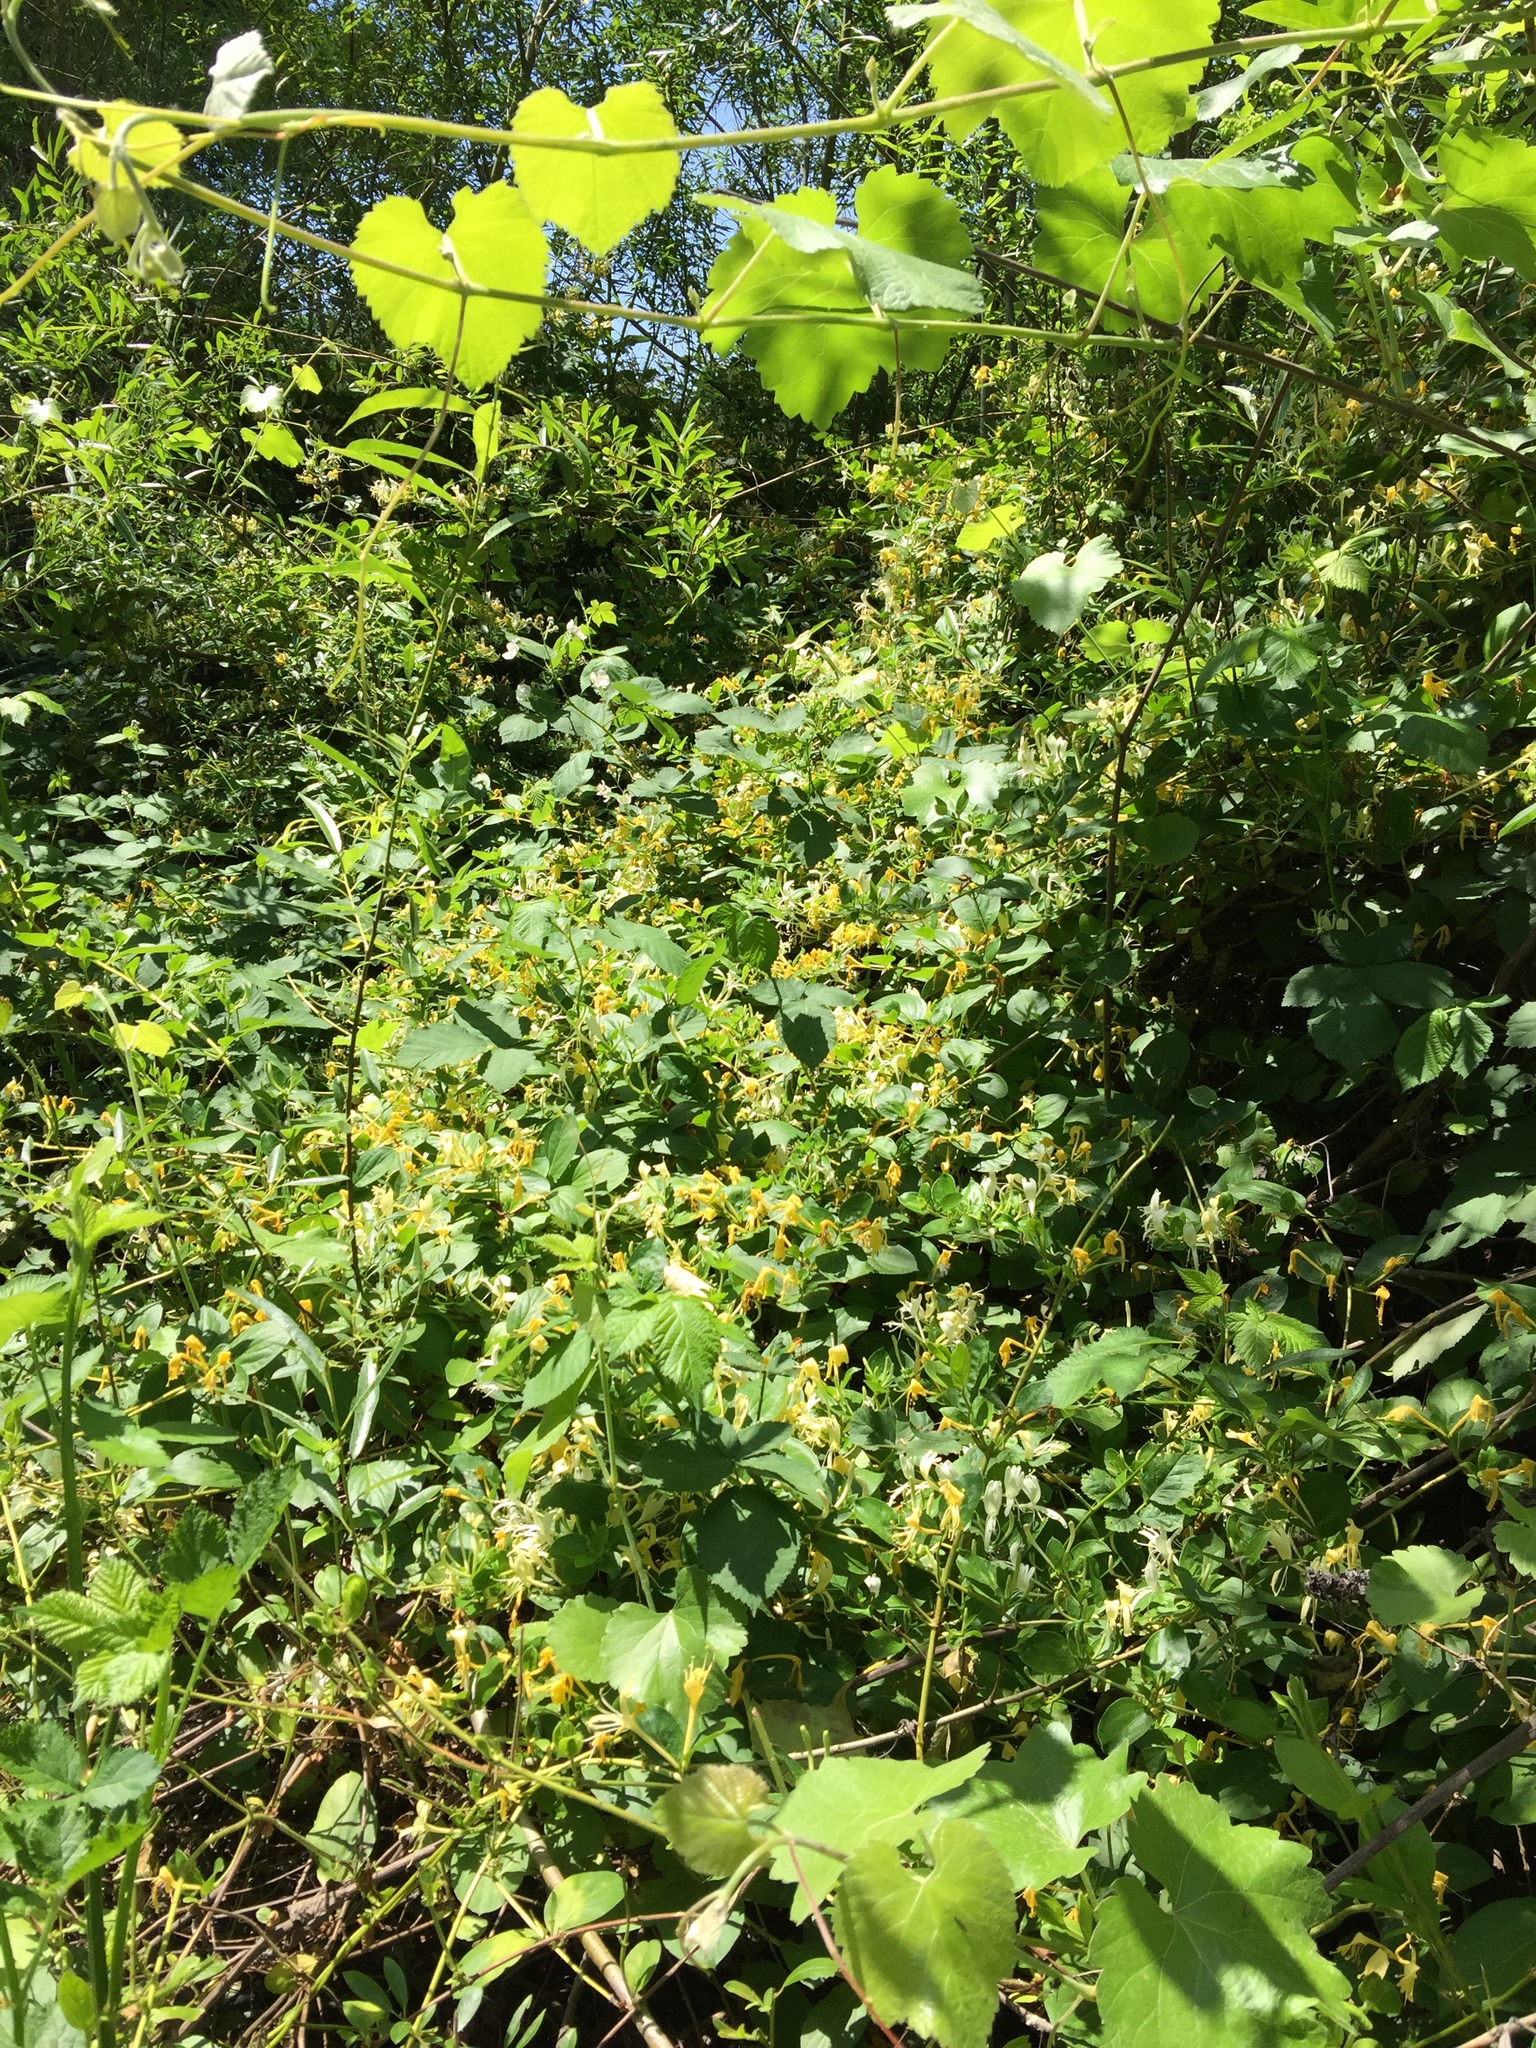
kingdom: Plantae
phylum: Tracheophyta
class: Magnoliopsida
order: Dipsacales
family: Caprifoliaceae
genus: Lonicera
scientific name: Lonicera japonica
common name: Japanese honeysuckle
